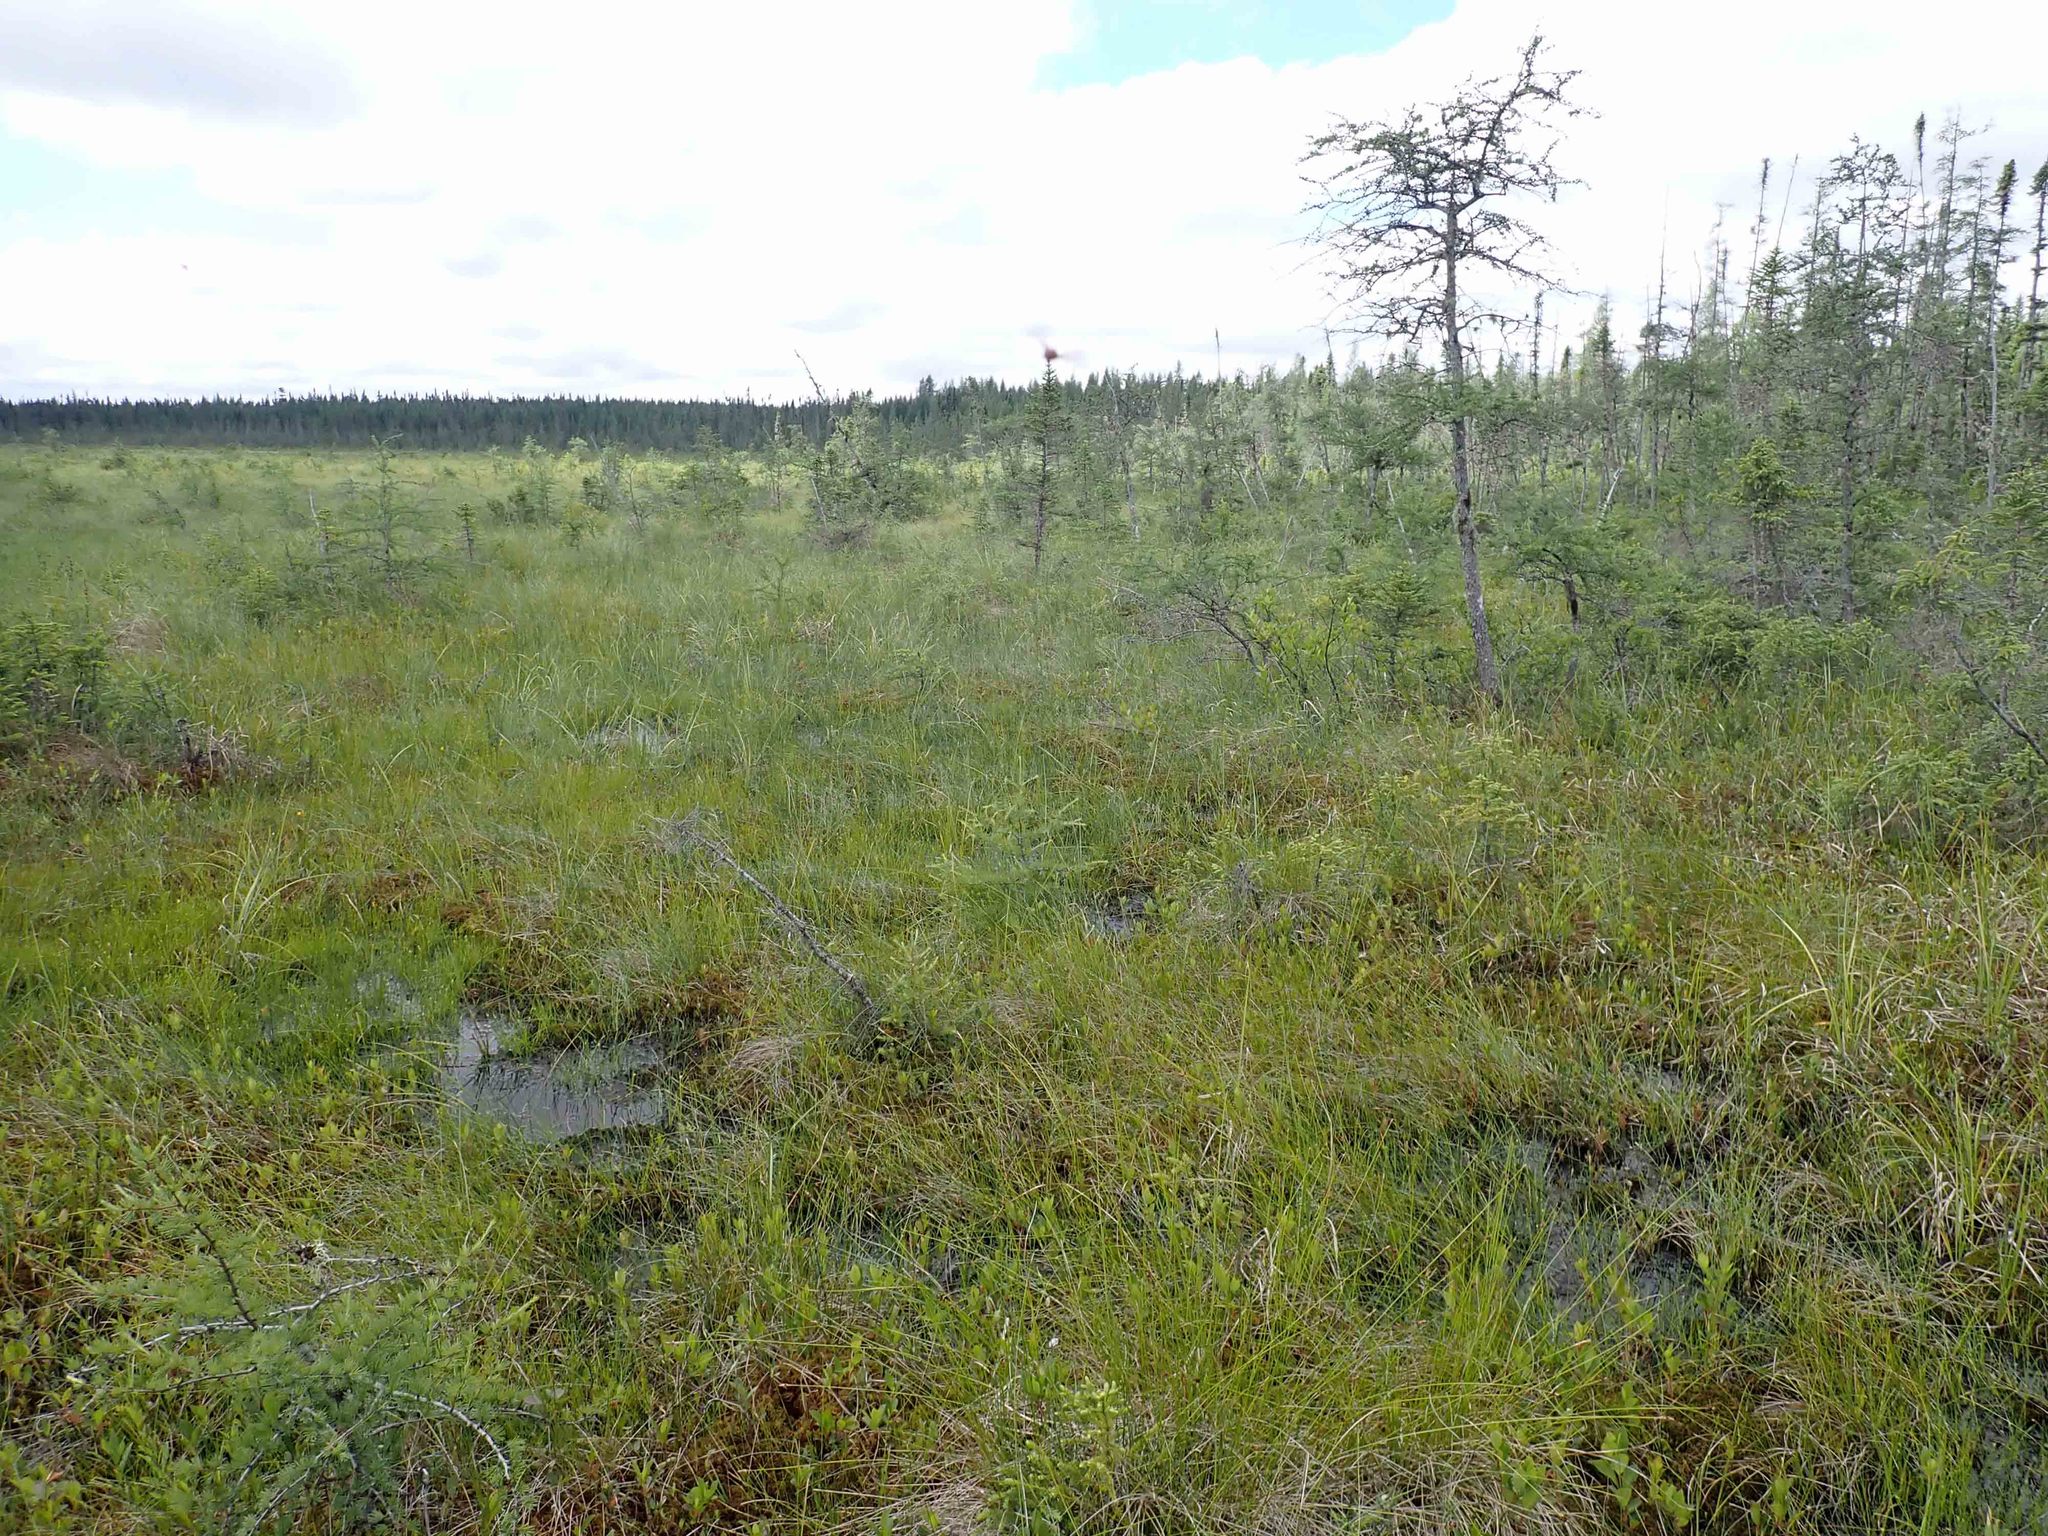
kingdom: Plantae
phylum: Tracheophyta
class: Pinopsida
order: Pinales
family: Pinaceae
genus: Larix
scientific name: Larix laricina
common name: American larch
